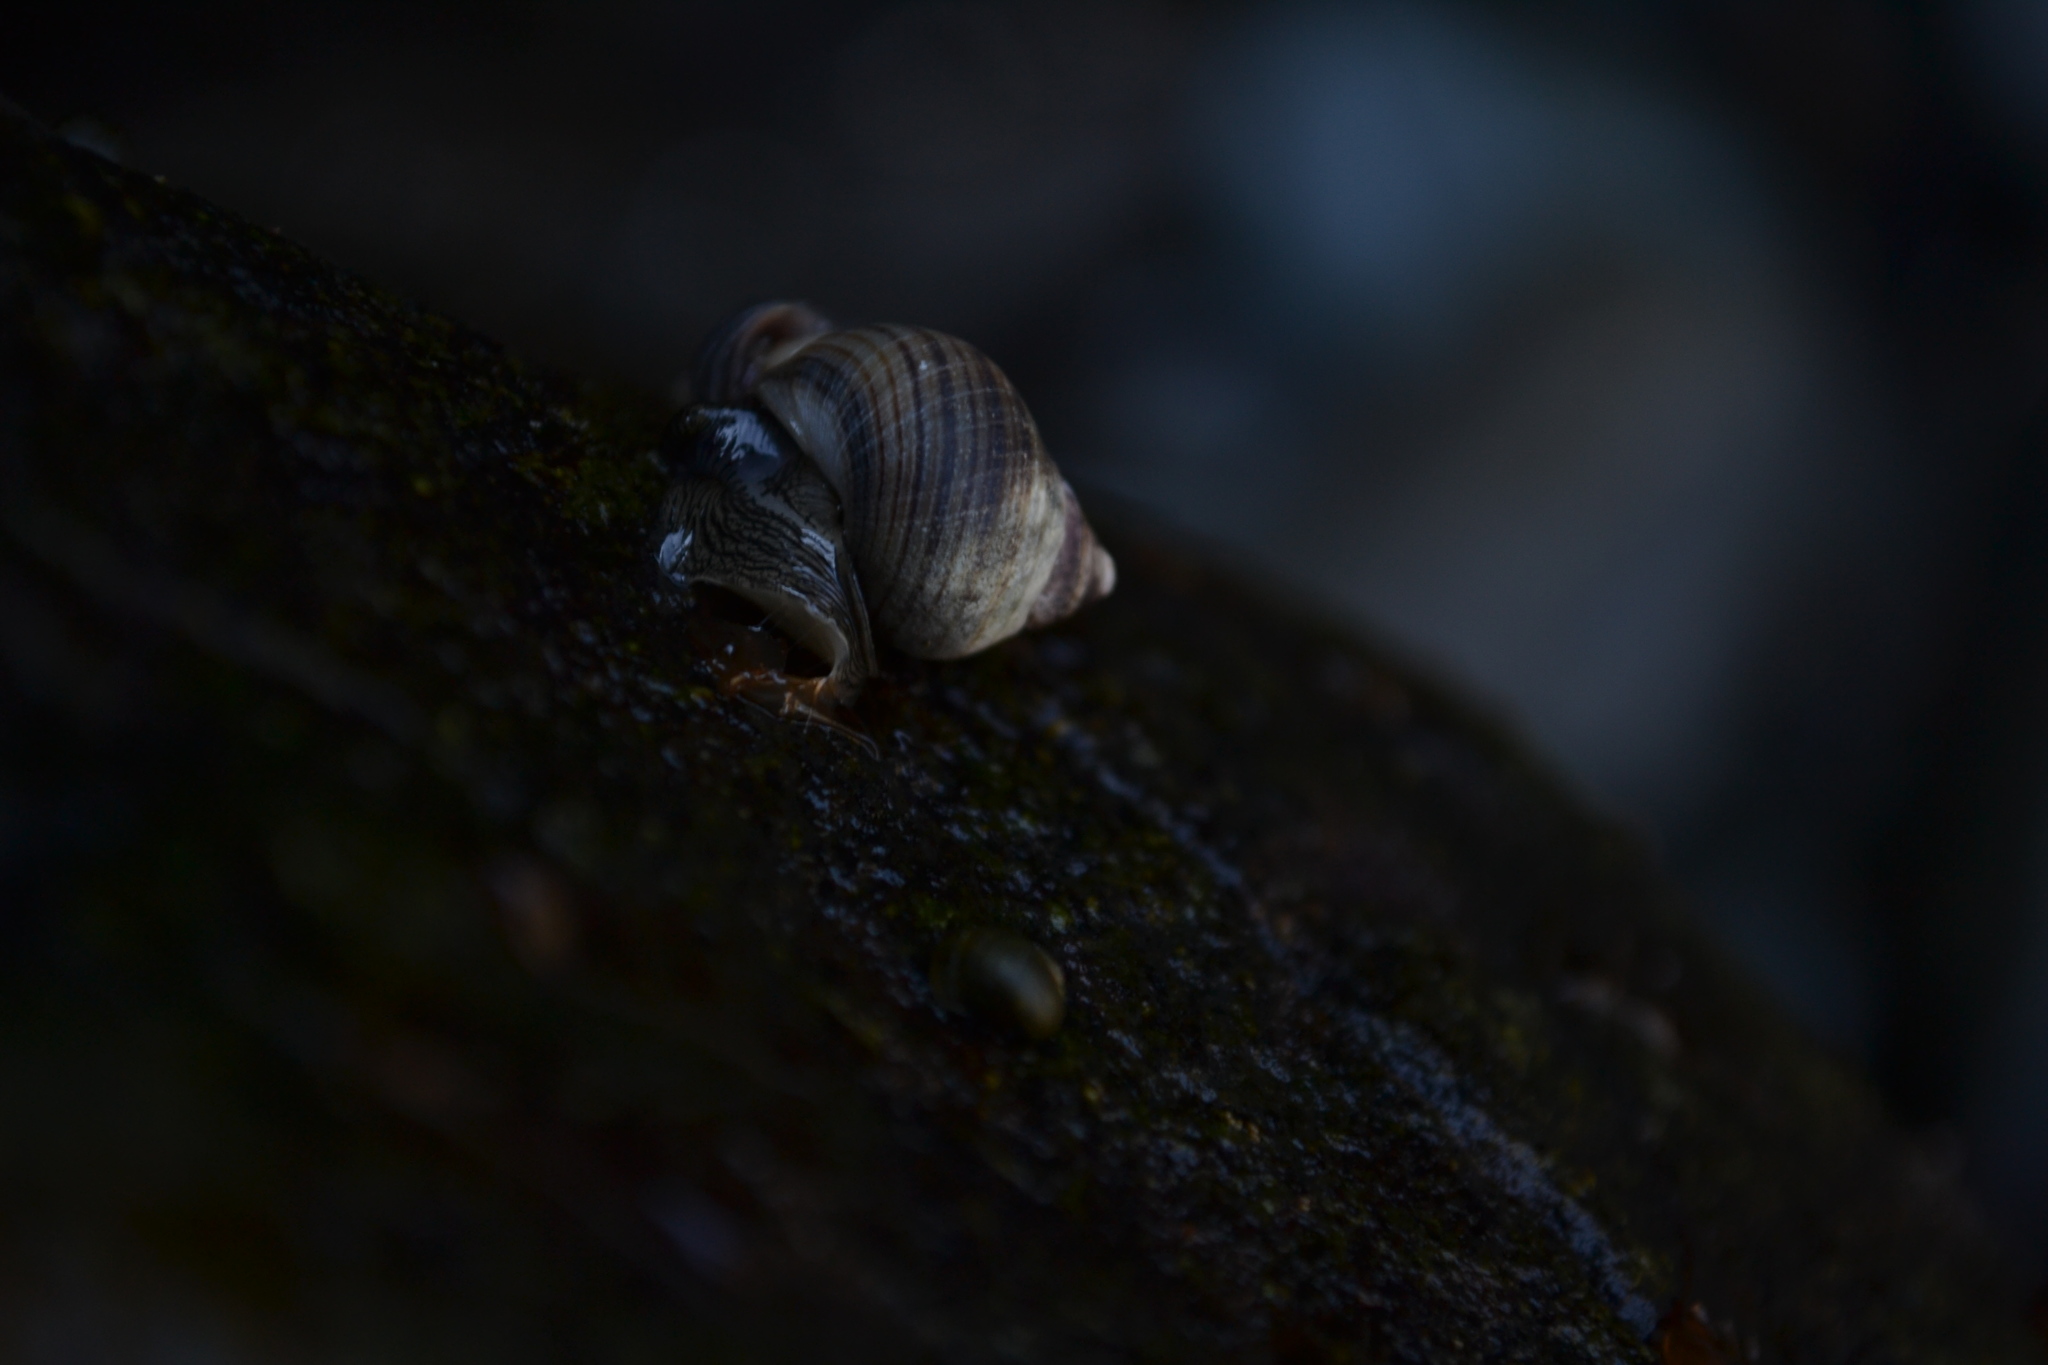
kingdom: Animalia
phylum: Mollusca
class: Gastropoda
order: Littorinimorpha
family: Littorinidae
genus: Littorina
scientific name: Littorina littorea
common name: Common periwinkle
